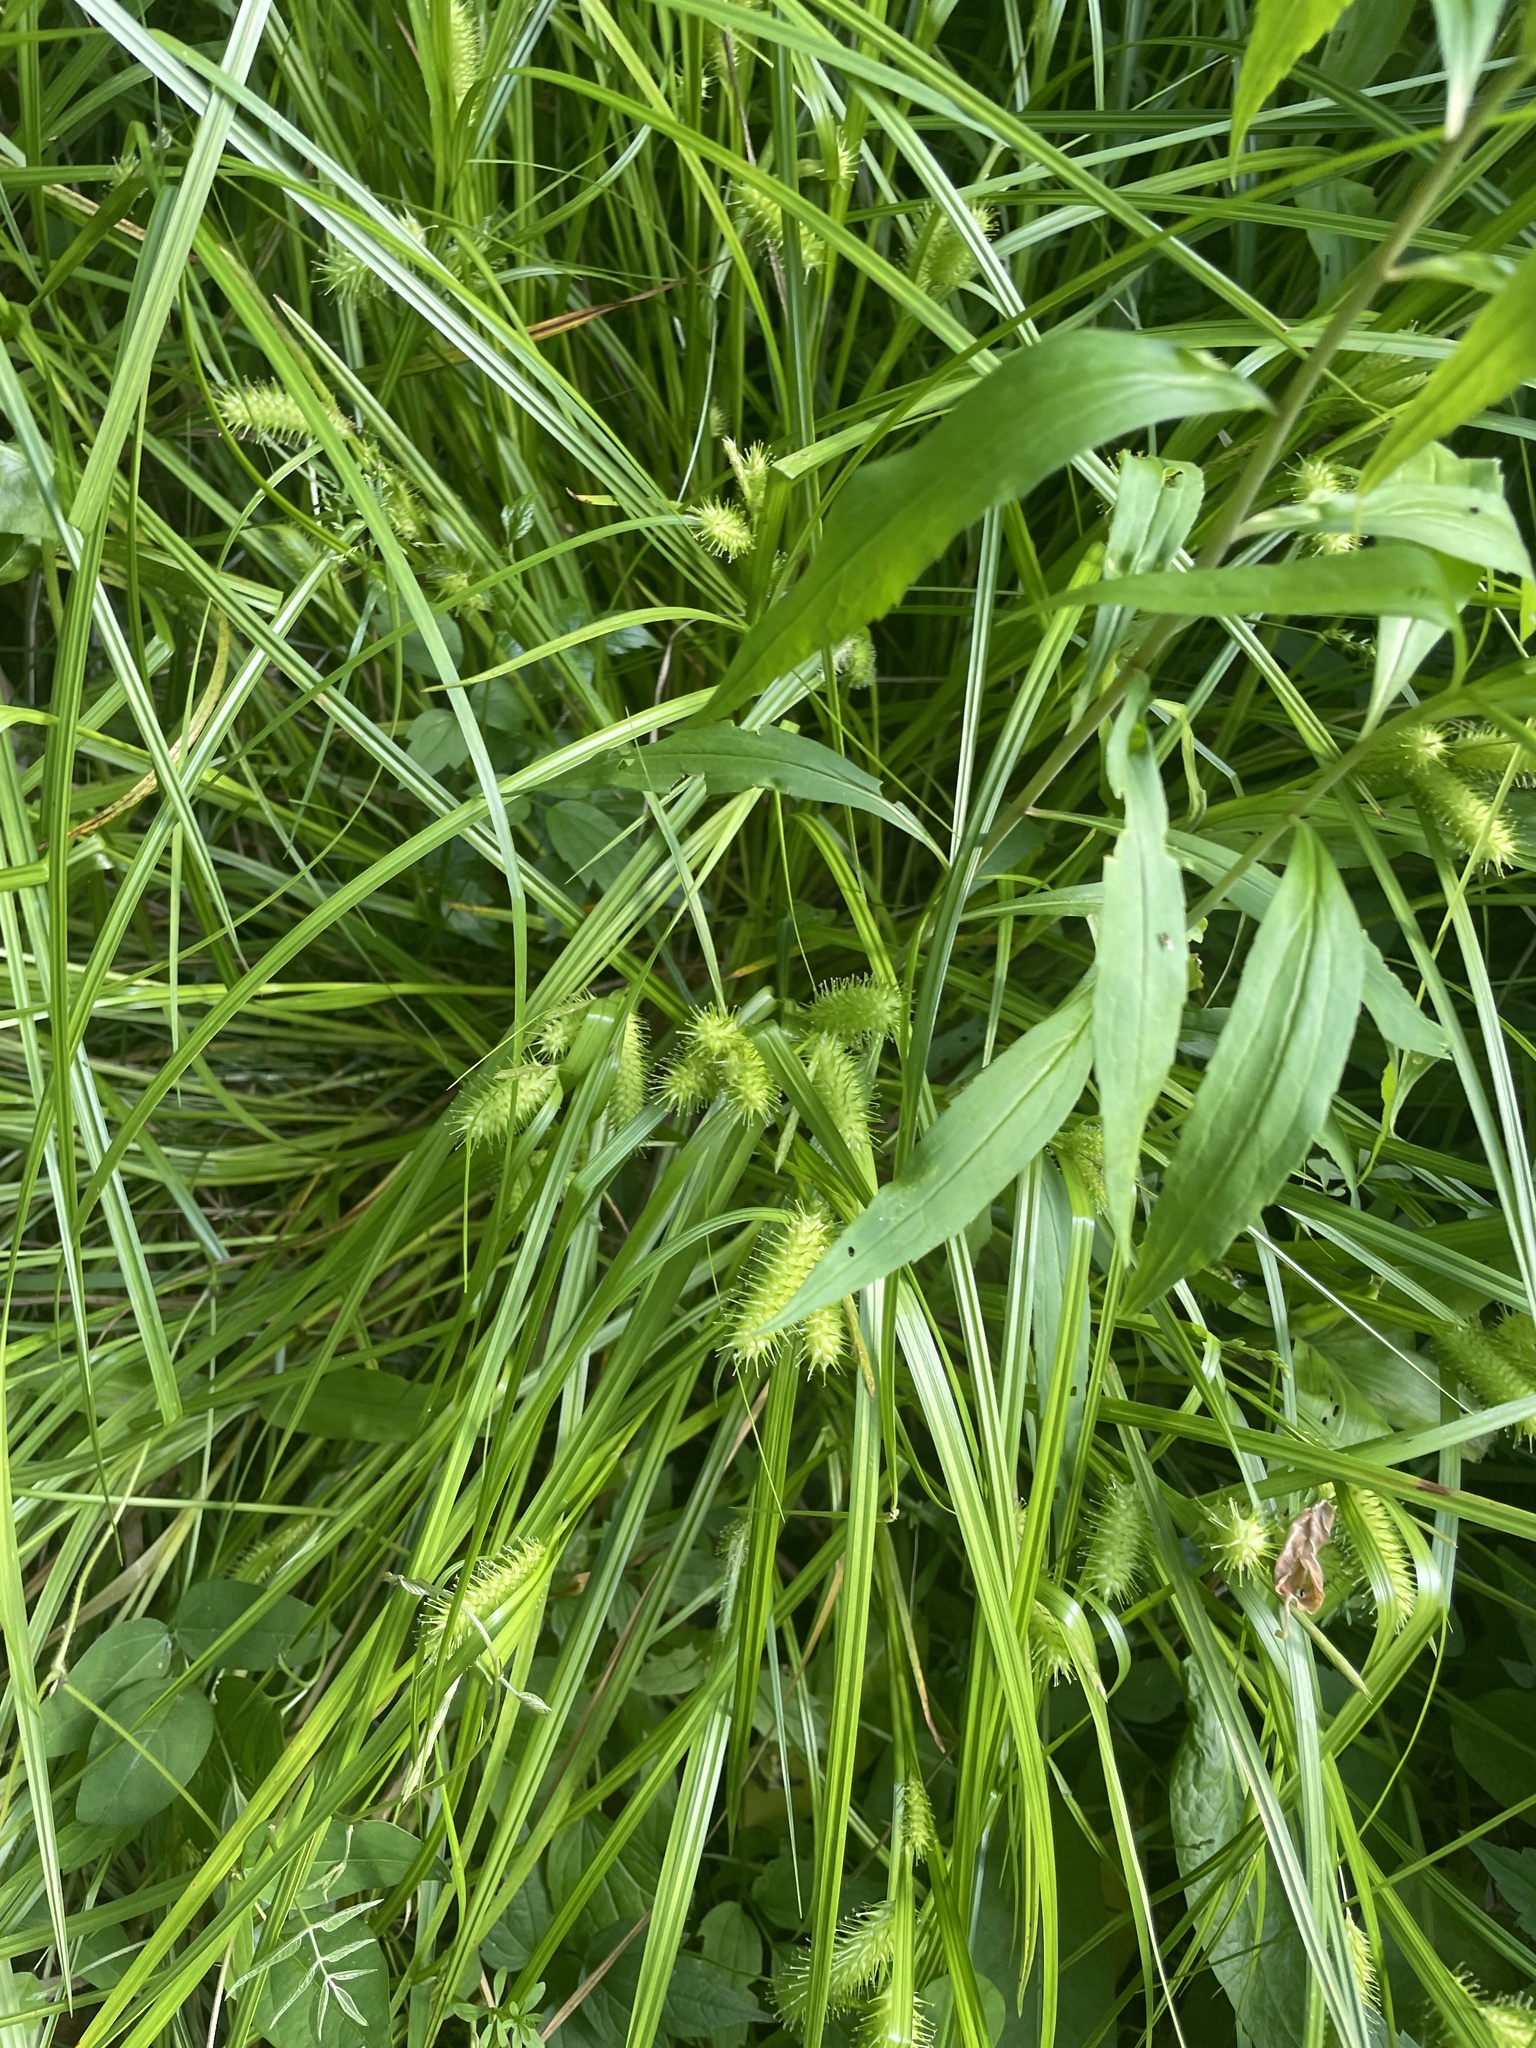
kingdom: Plantae
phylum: Tracheophyta
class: Liliopsida
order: Poales
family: Cyperaceae
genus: Carex
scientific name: Carex lurida
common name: Sallow sedge
